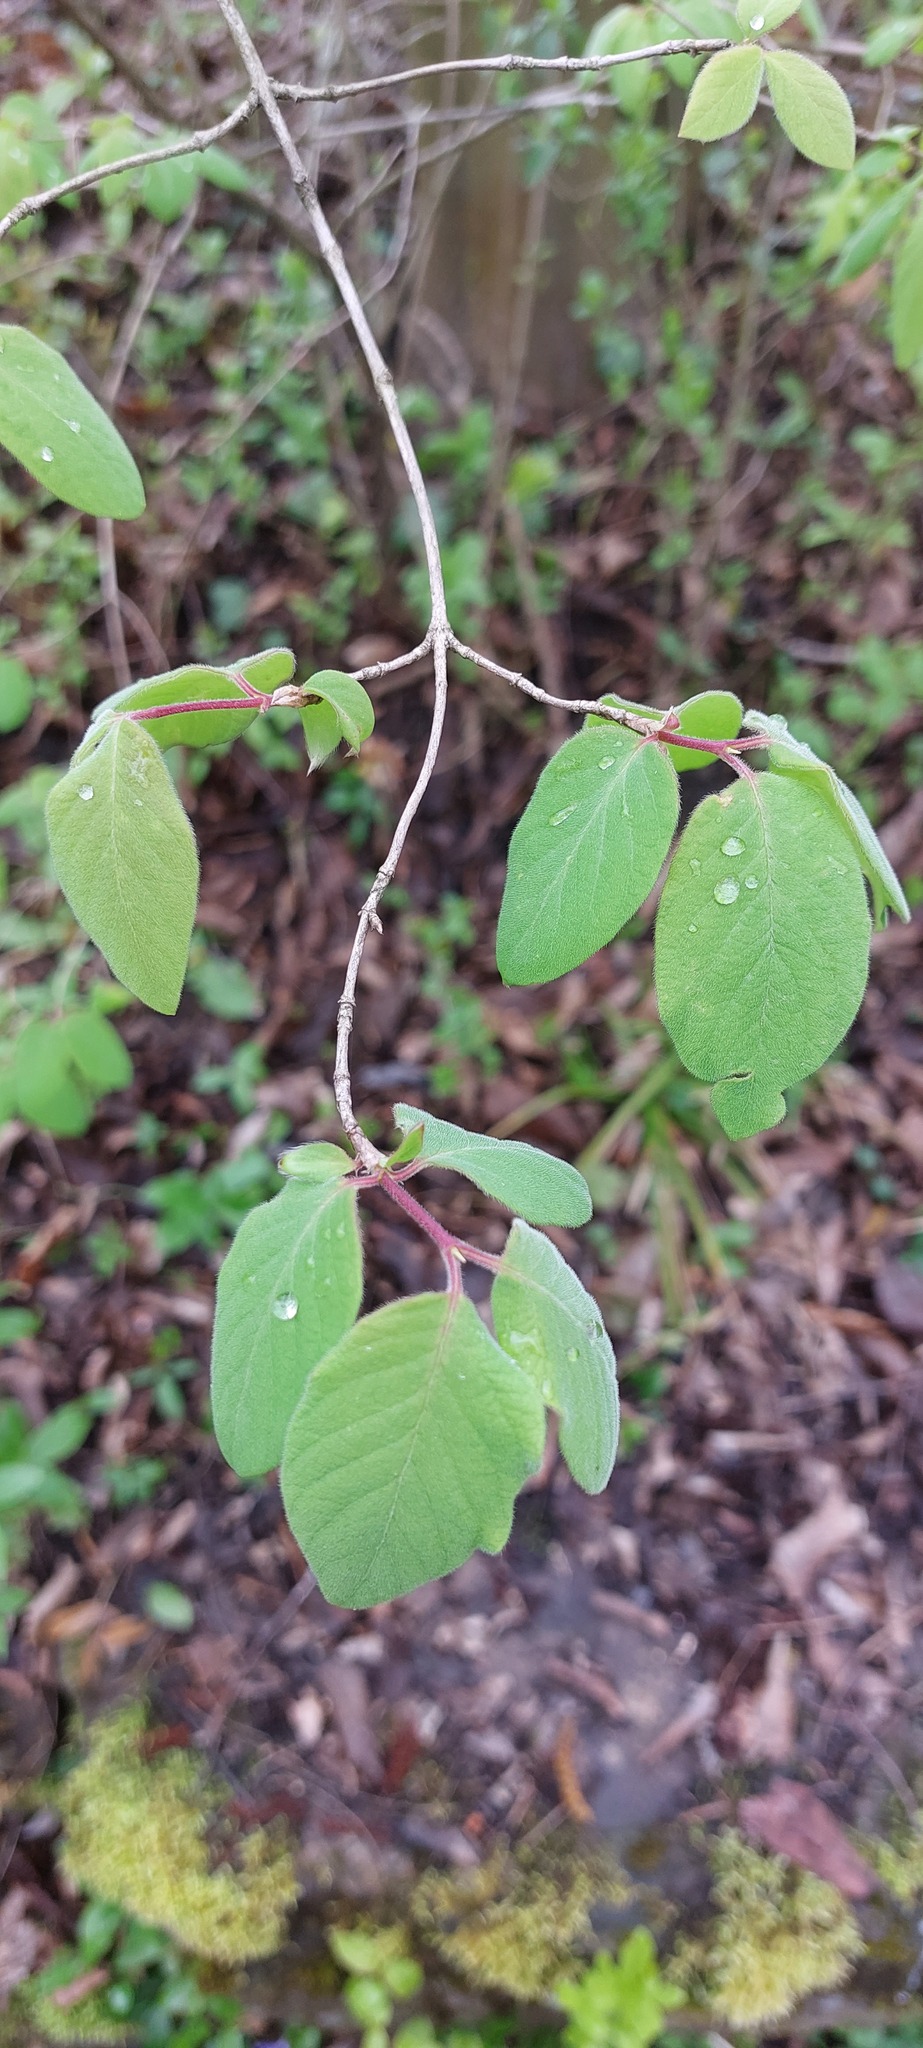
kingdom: Plantae
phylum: Tracheophyta
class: Magnoliopsida
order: Dipsacales
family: Caprifoliaceae
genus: Lonicera
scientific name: Lonicera xylosteum
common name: Fly honeysuckle
